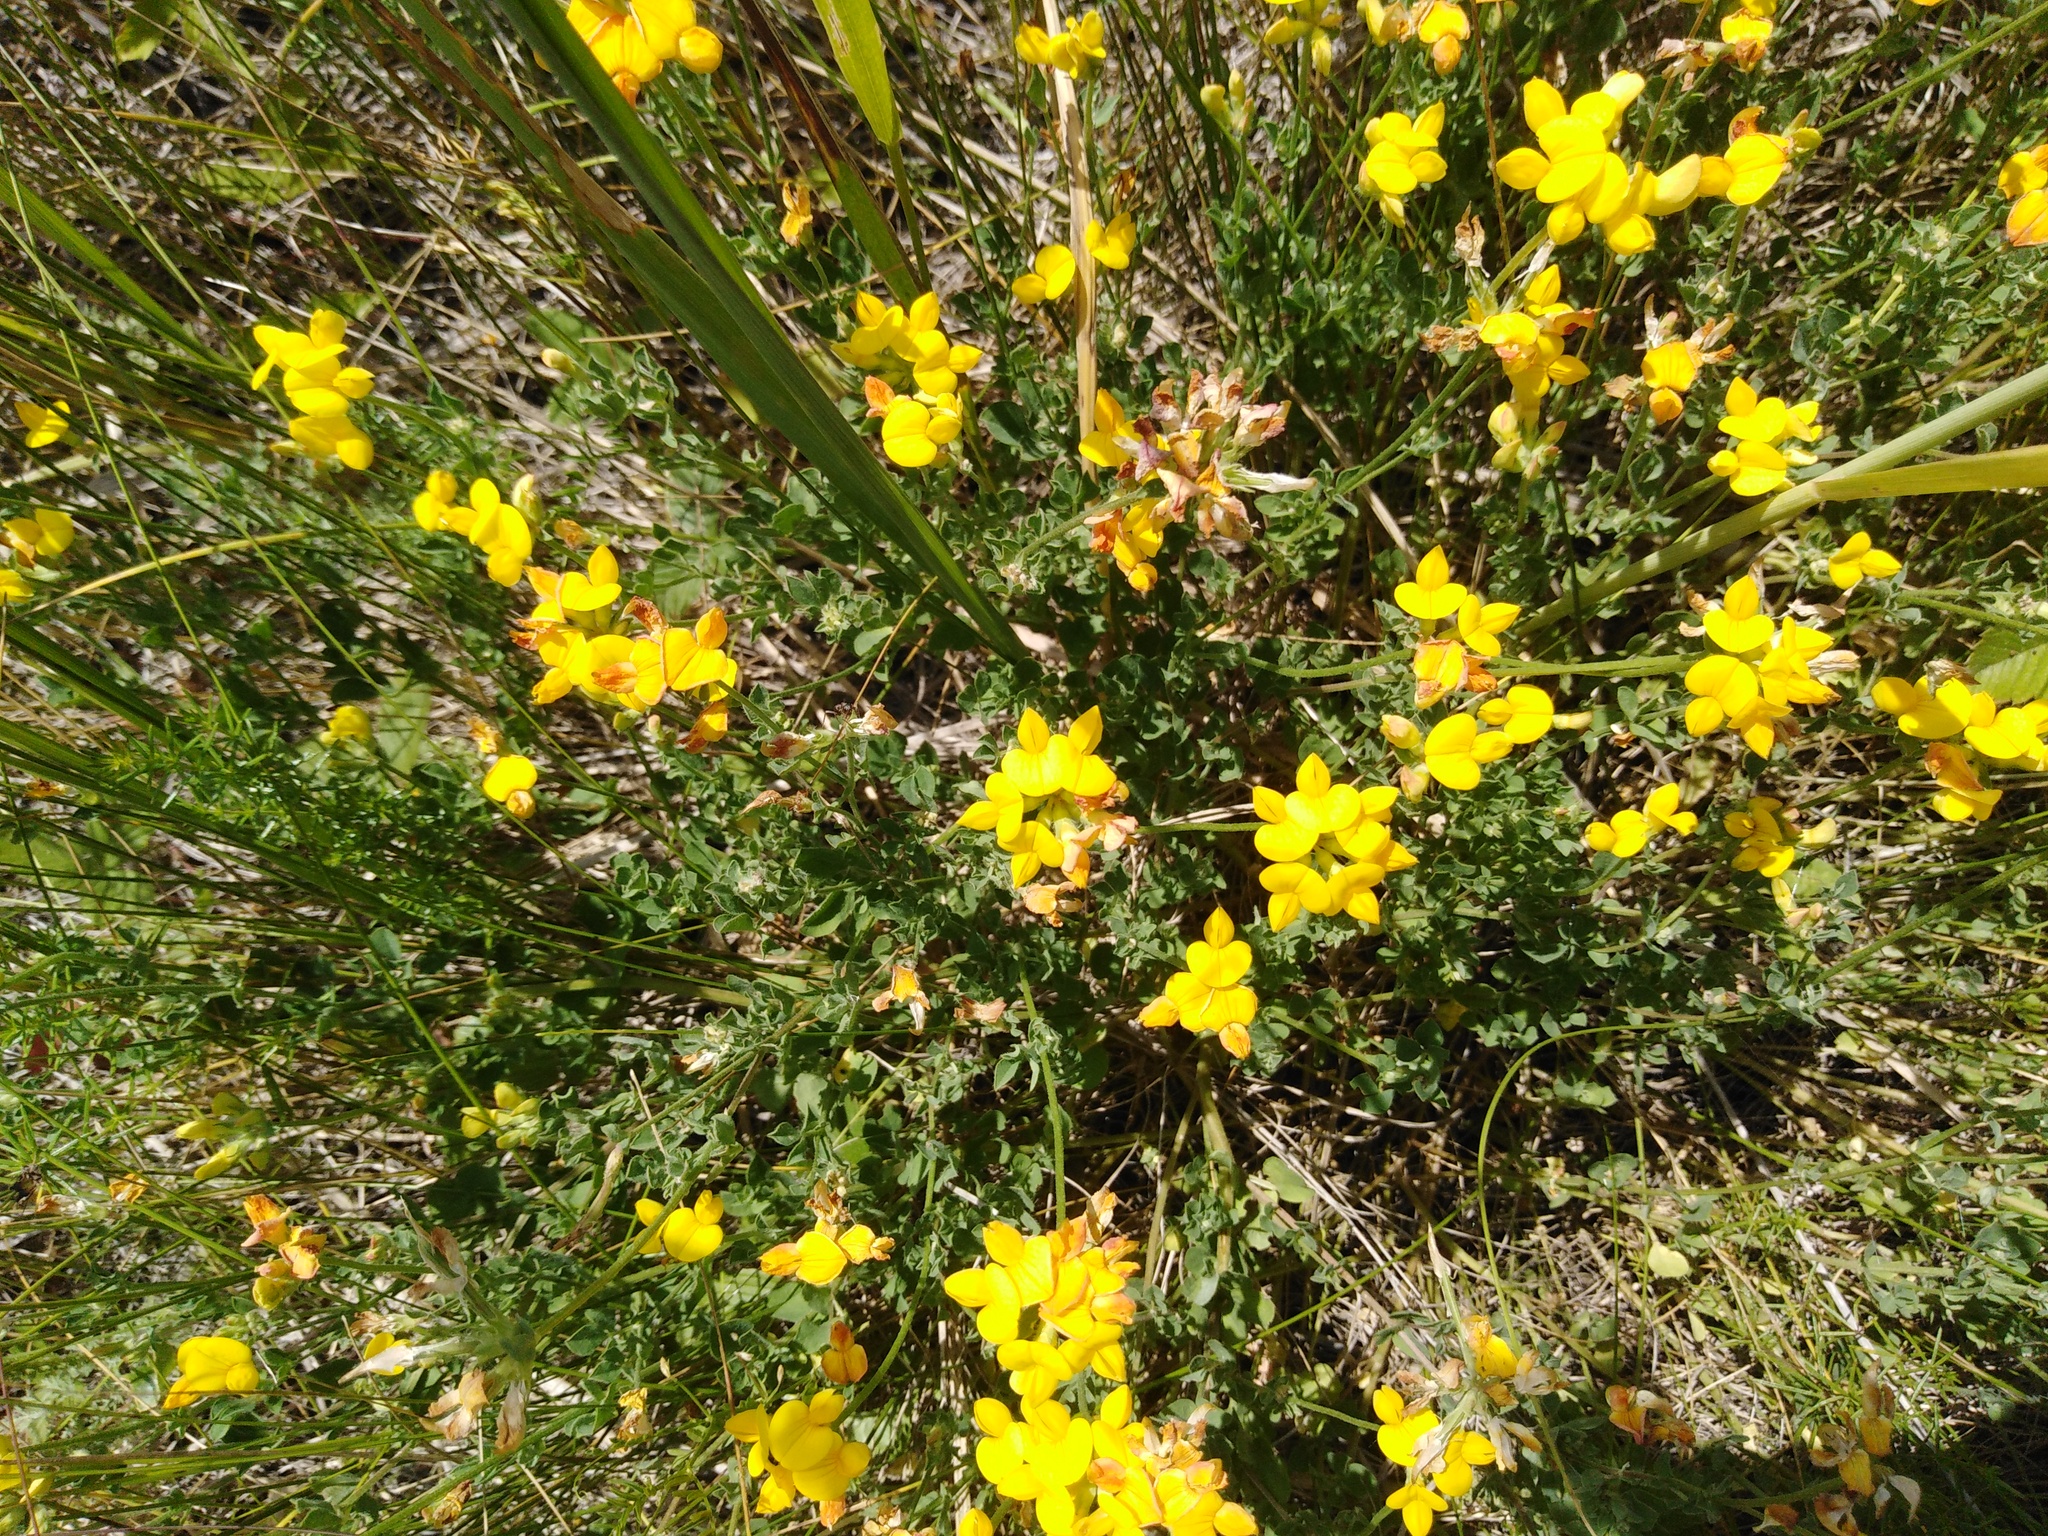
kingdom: Plantae
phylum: Tracheophyta
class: Magnoliopsida
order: Fabales
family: Fabaceae
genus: Lotus
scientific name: Lotus corniculatus
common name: Common bird's-foot-trefoil
